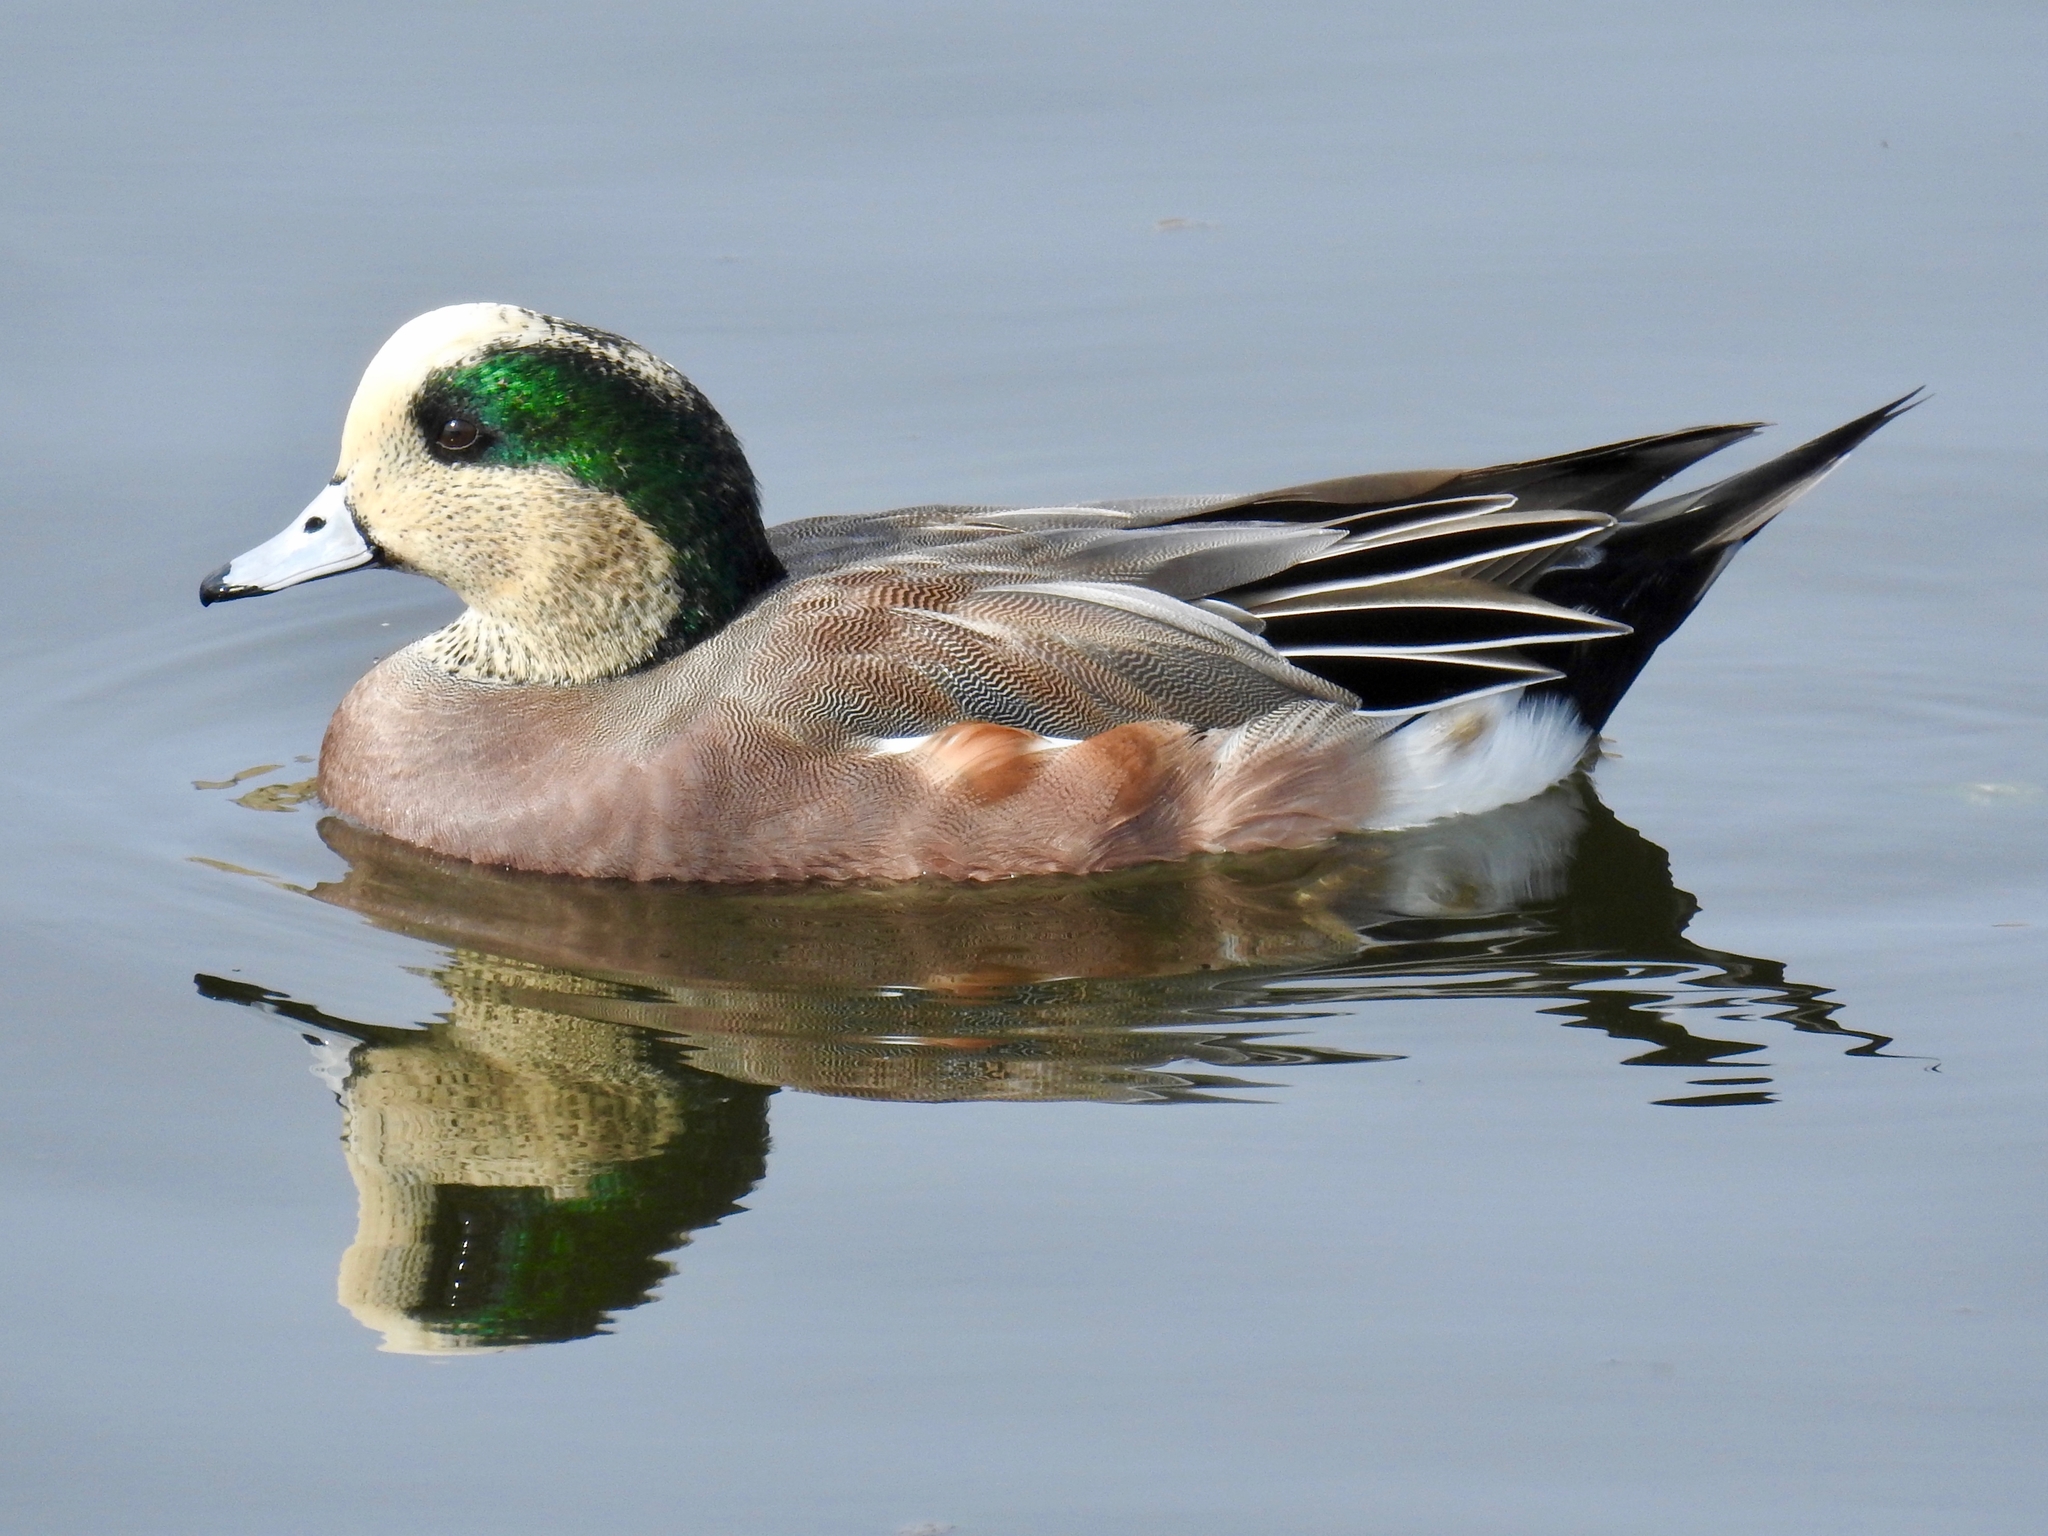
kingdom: Animalia
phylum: Chordata
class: Aves
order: Anseriformes
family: Anatidae
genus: Mareca
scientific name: Mareca americana
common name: American wigeon
